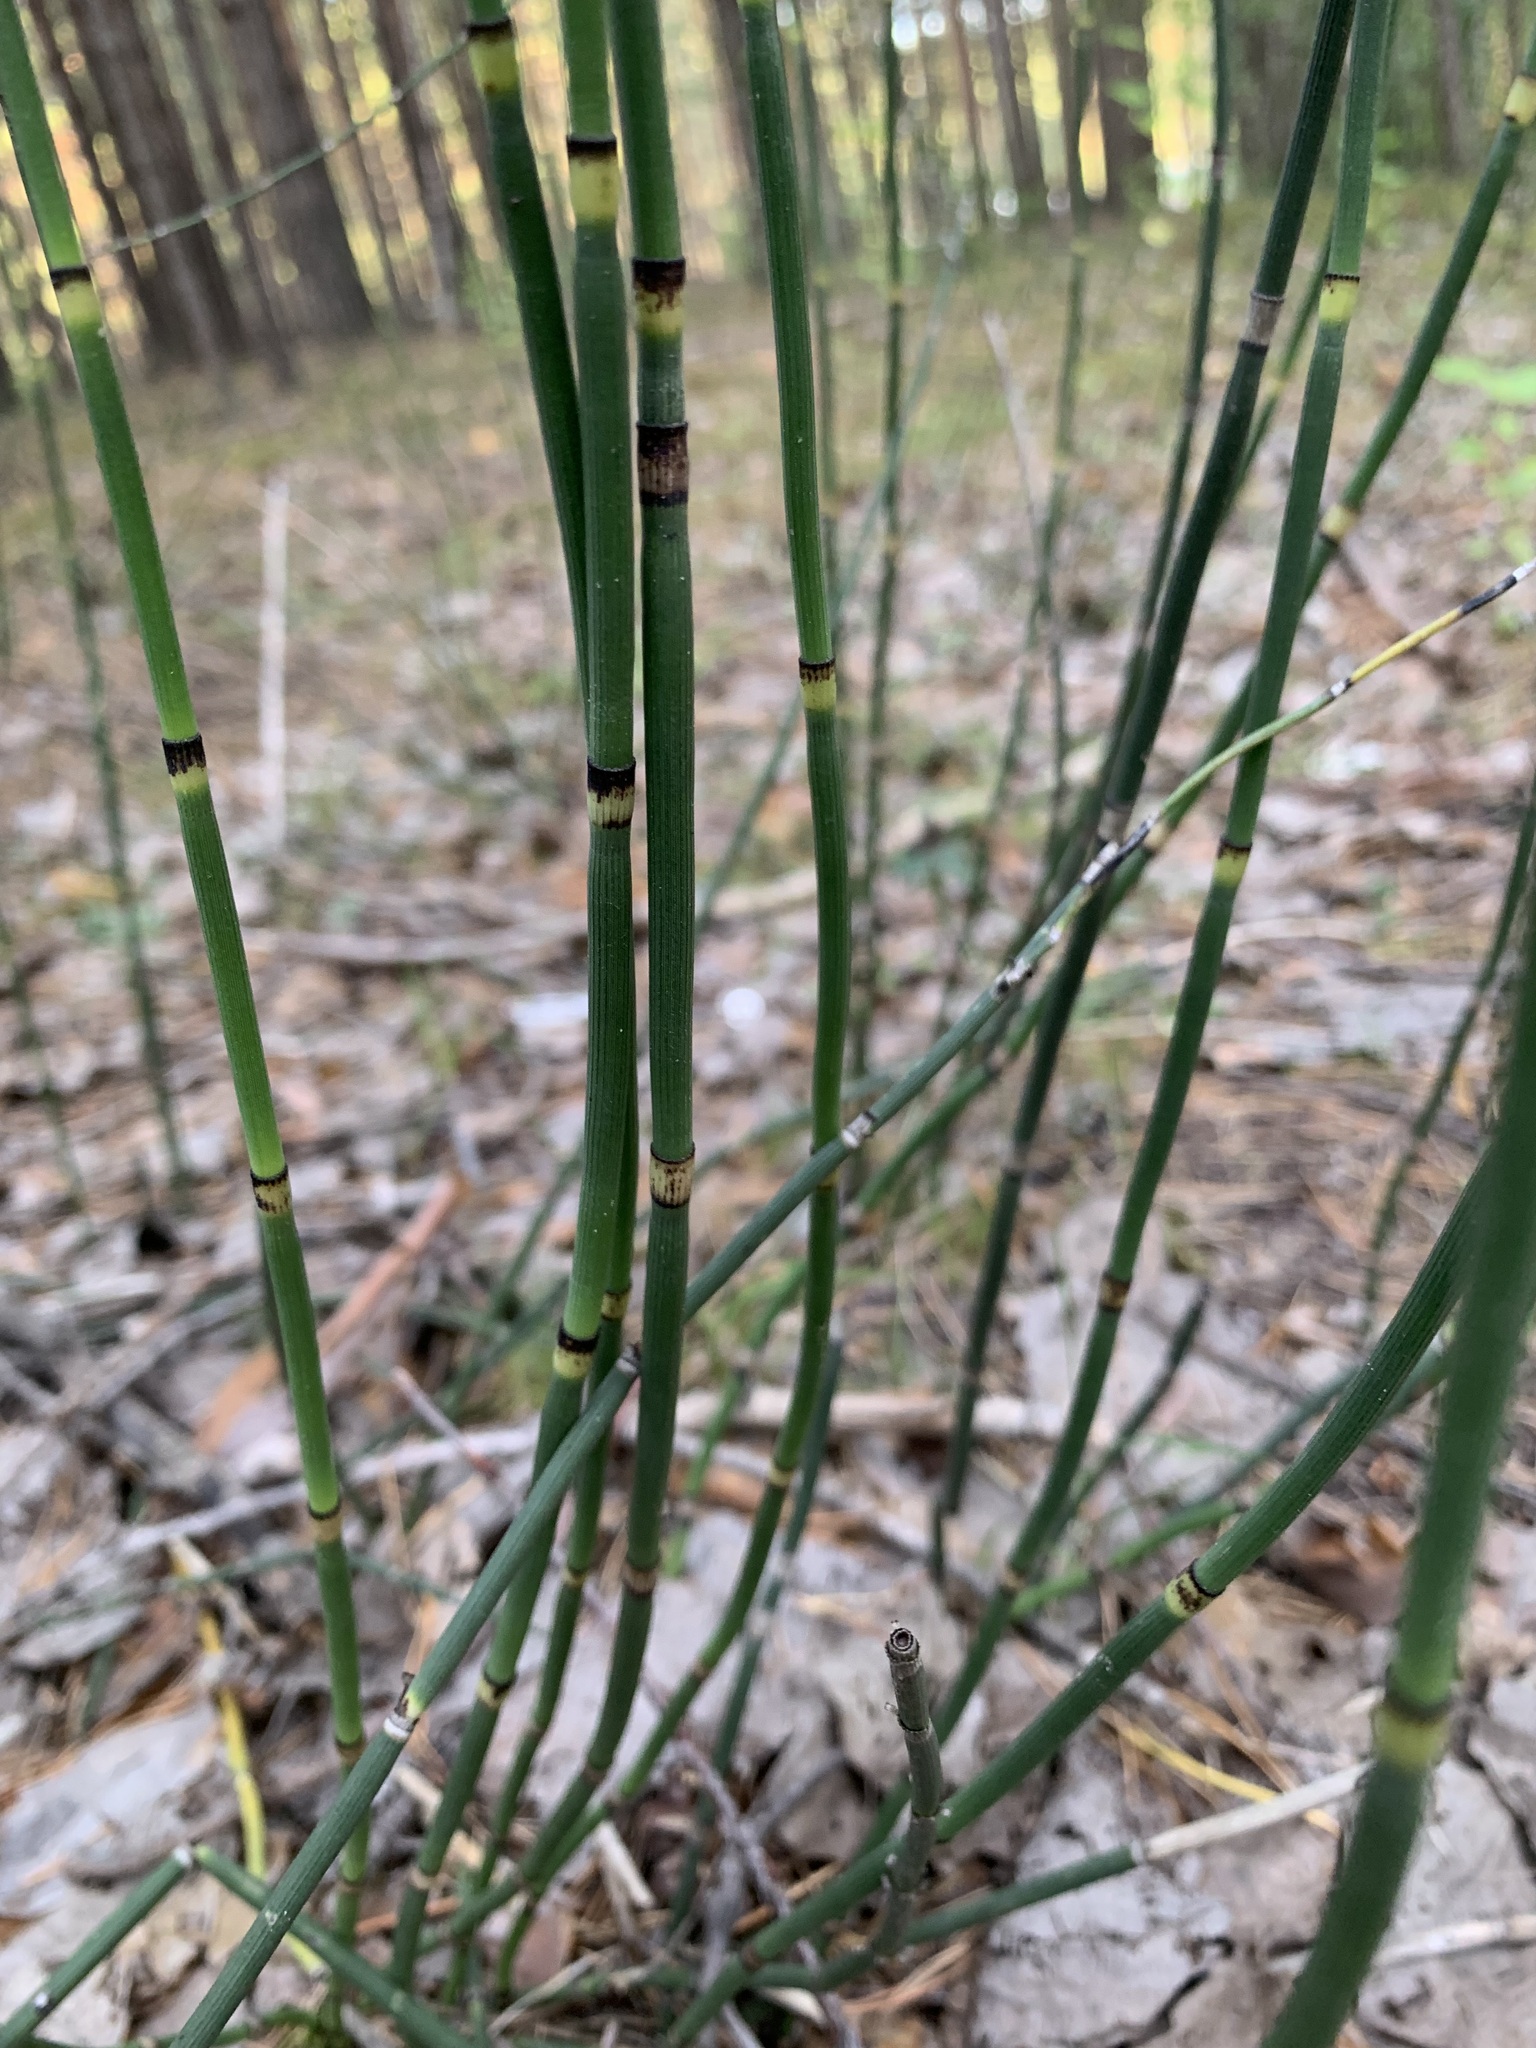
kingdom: Plantae
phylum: Tracheophyta
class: Polypodiopsida
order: Equisetales
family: Equisetaceae
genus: Equisetum
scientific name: Equisetum hyemale
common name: Rough horsetail
